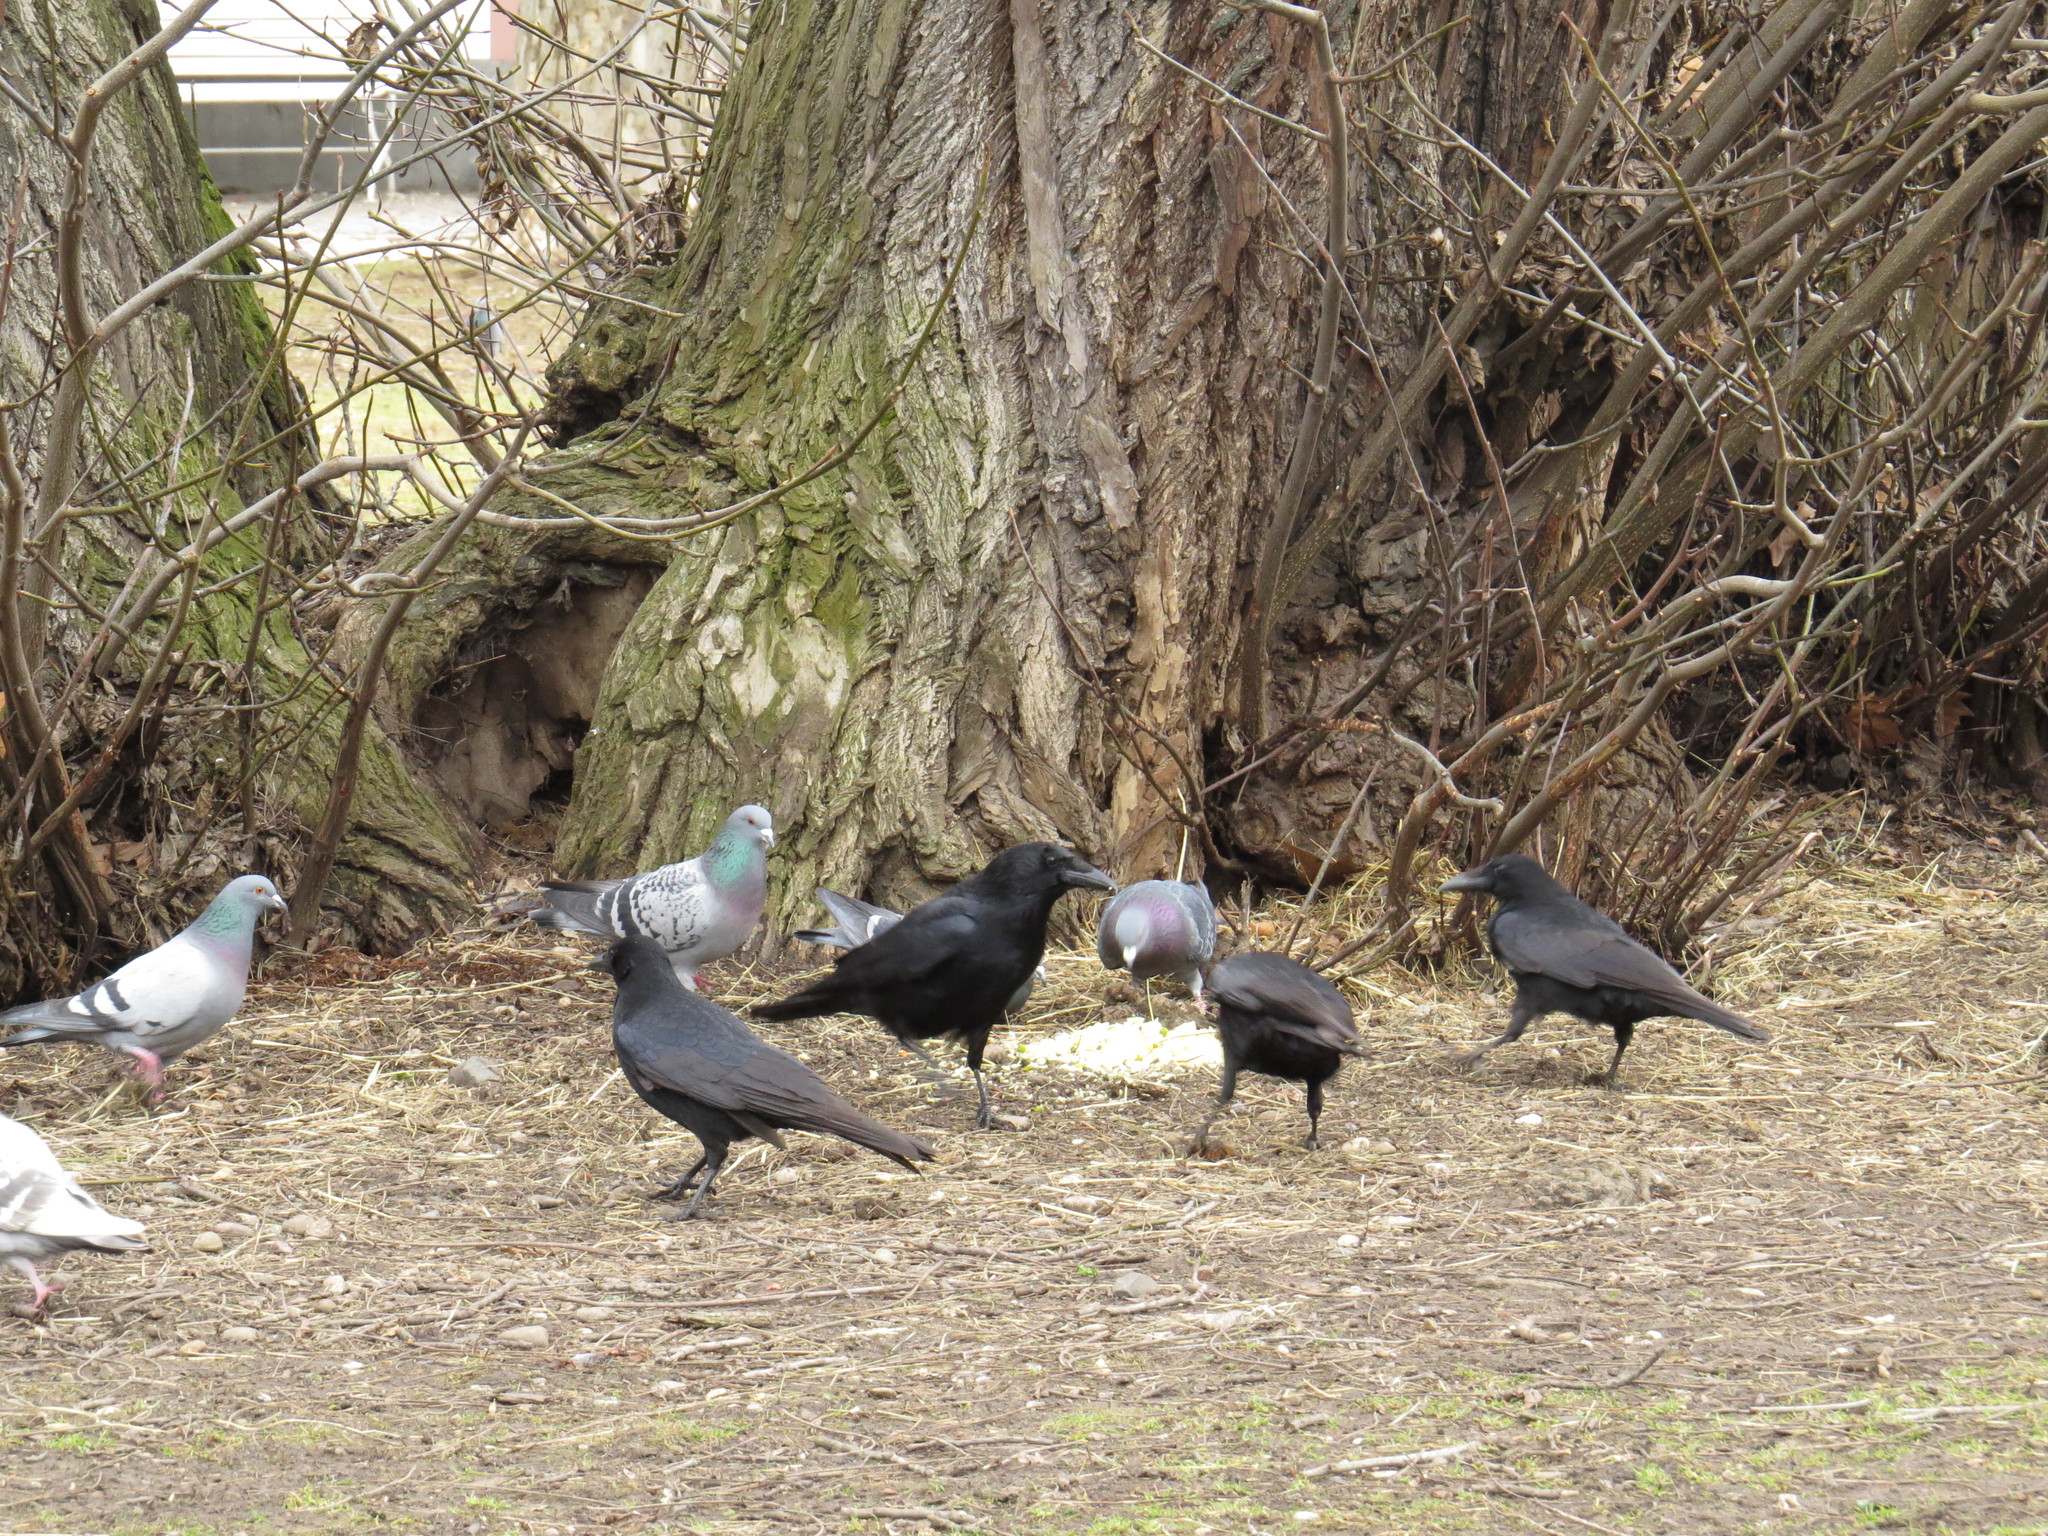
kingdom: Animalia
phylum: Chordata
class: Aves
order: Columbiformes
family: Columbidae
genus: Columba
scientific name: Columba livia
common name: Rock pigeon
